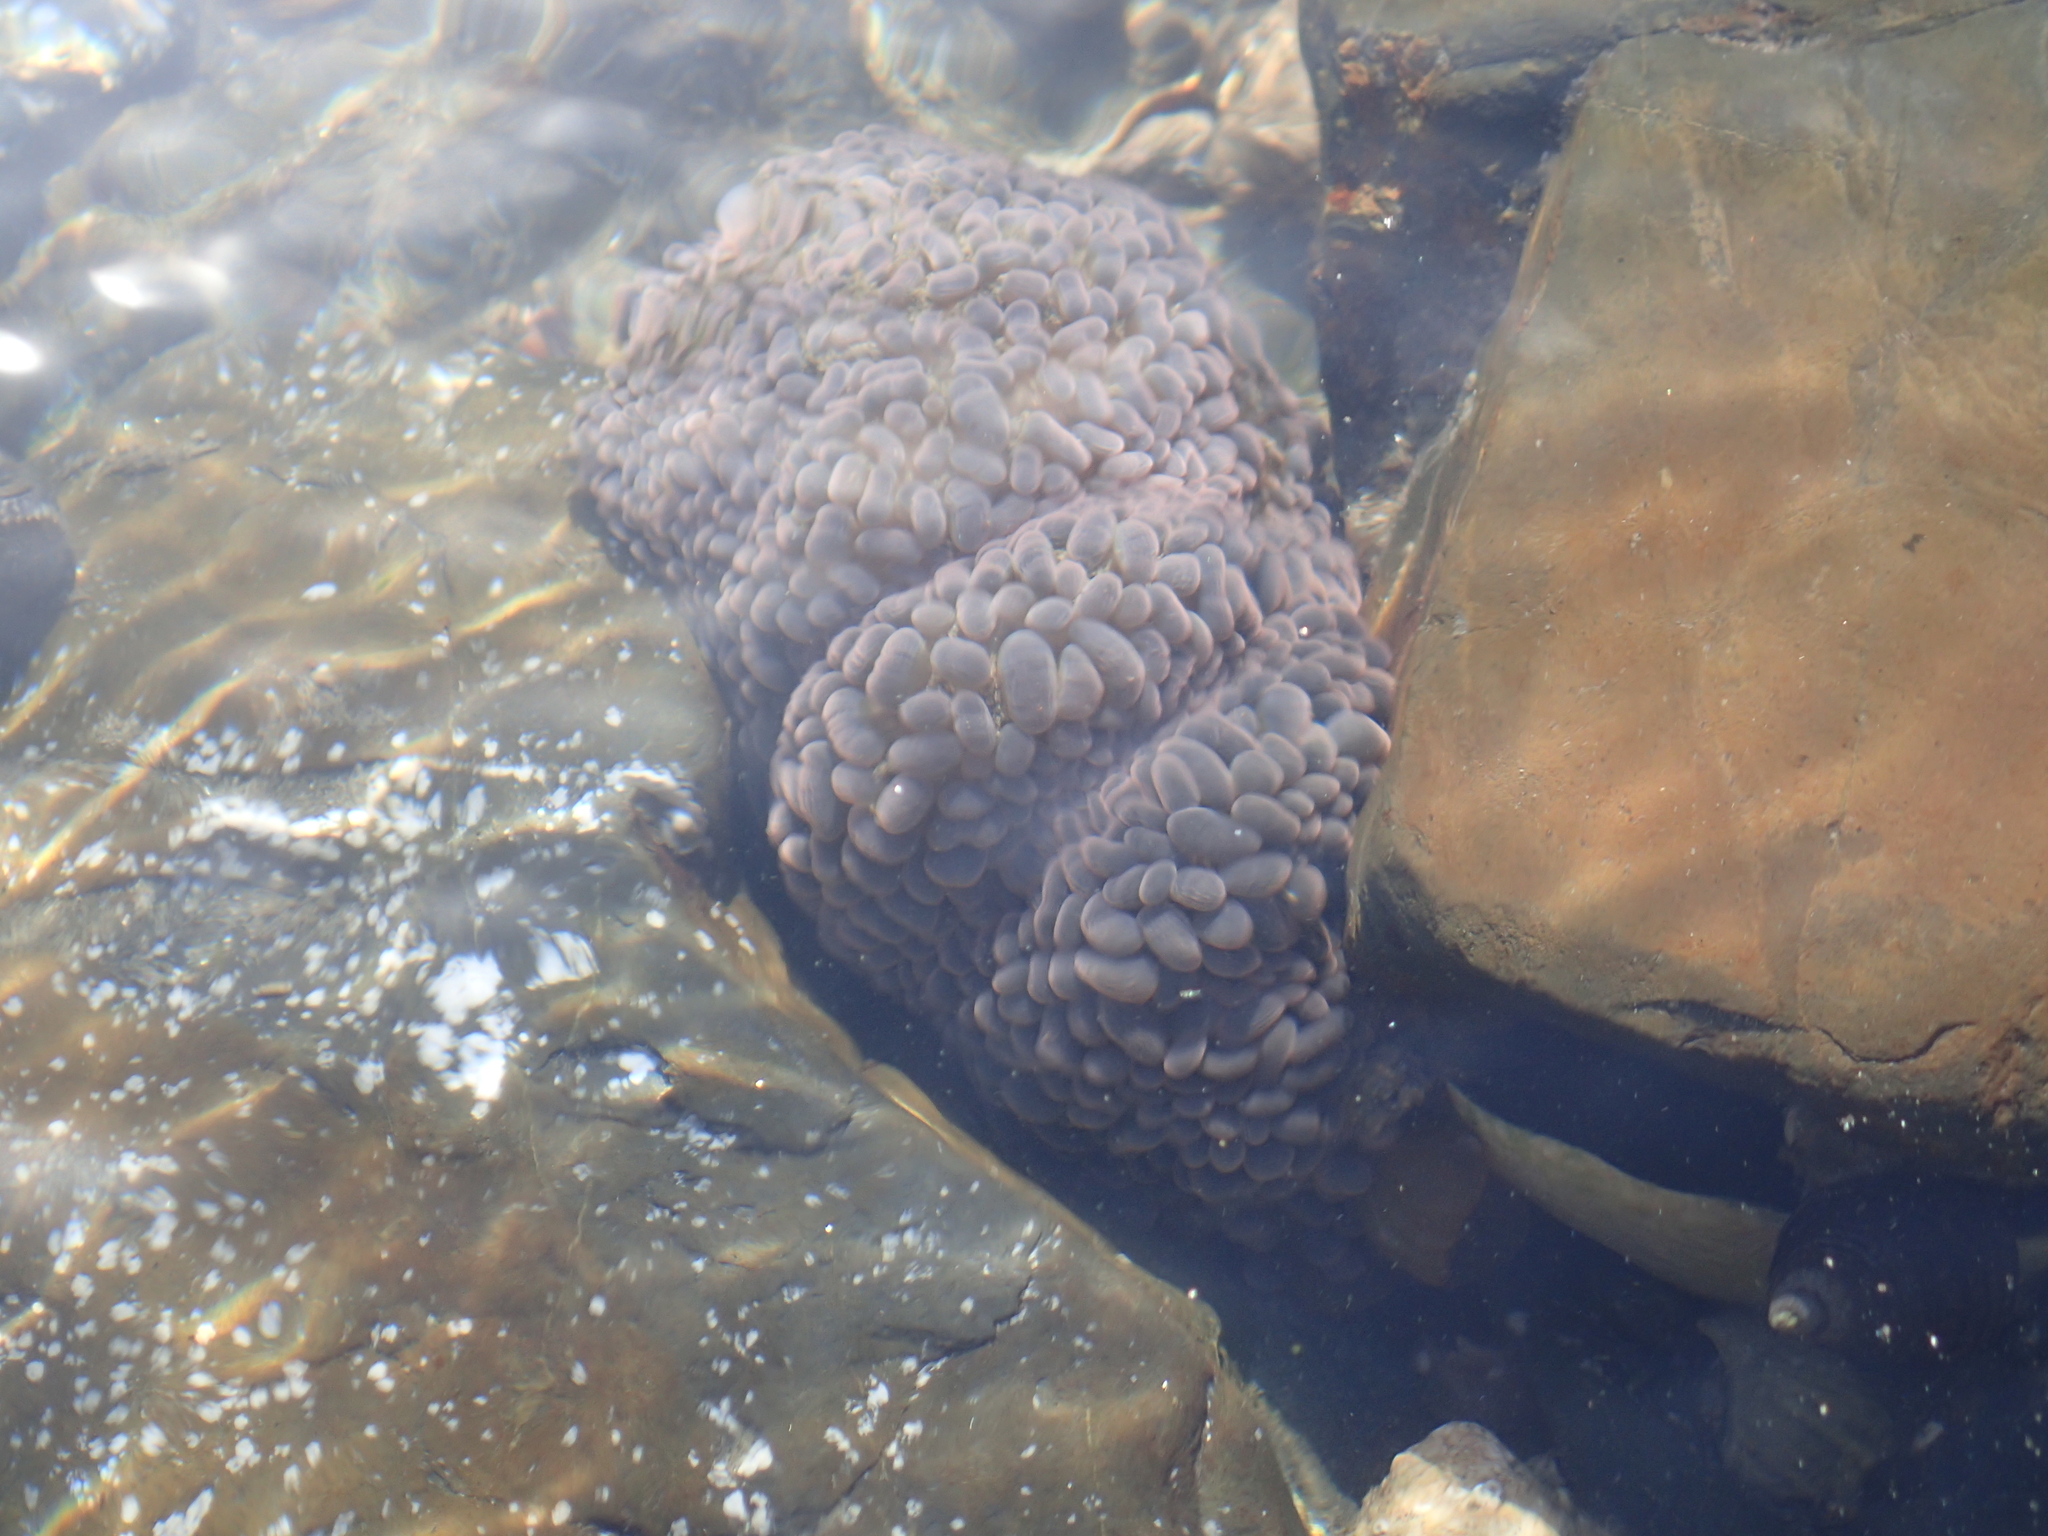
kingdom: Animalia
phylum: Cnidaria
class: Anthozoa
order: Actiniaria
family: Actiniidae
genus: Phlyctenactis
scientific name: Phlyctenactis tuberculosa
